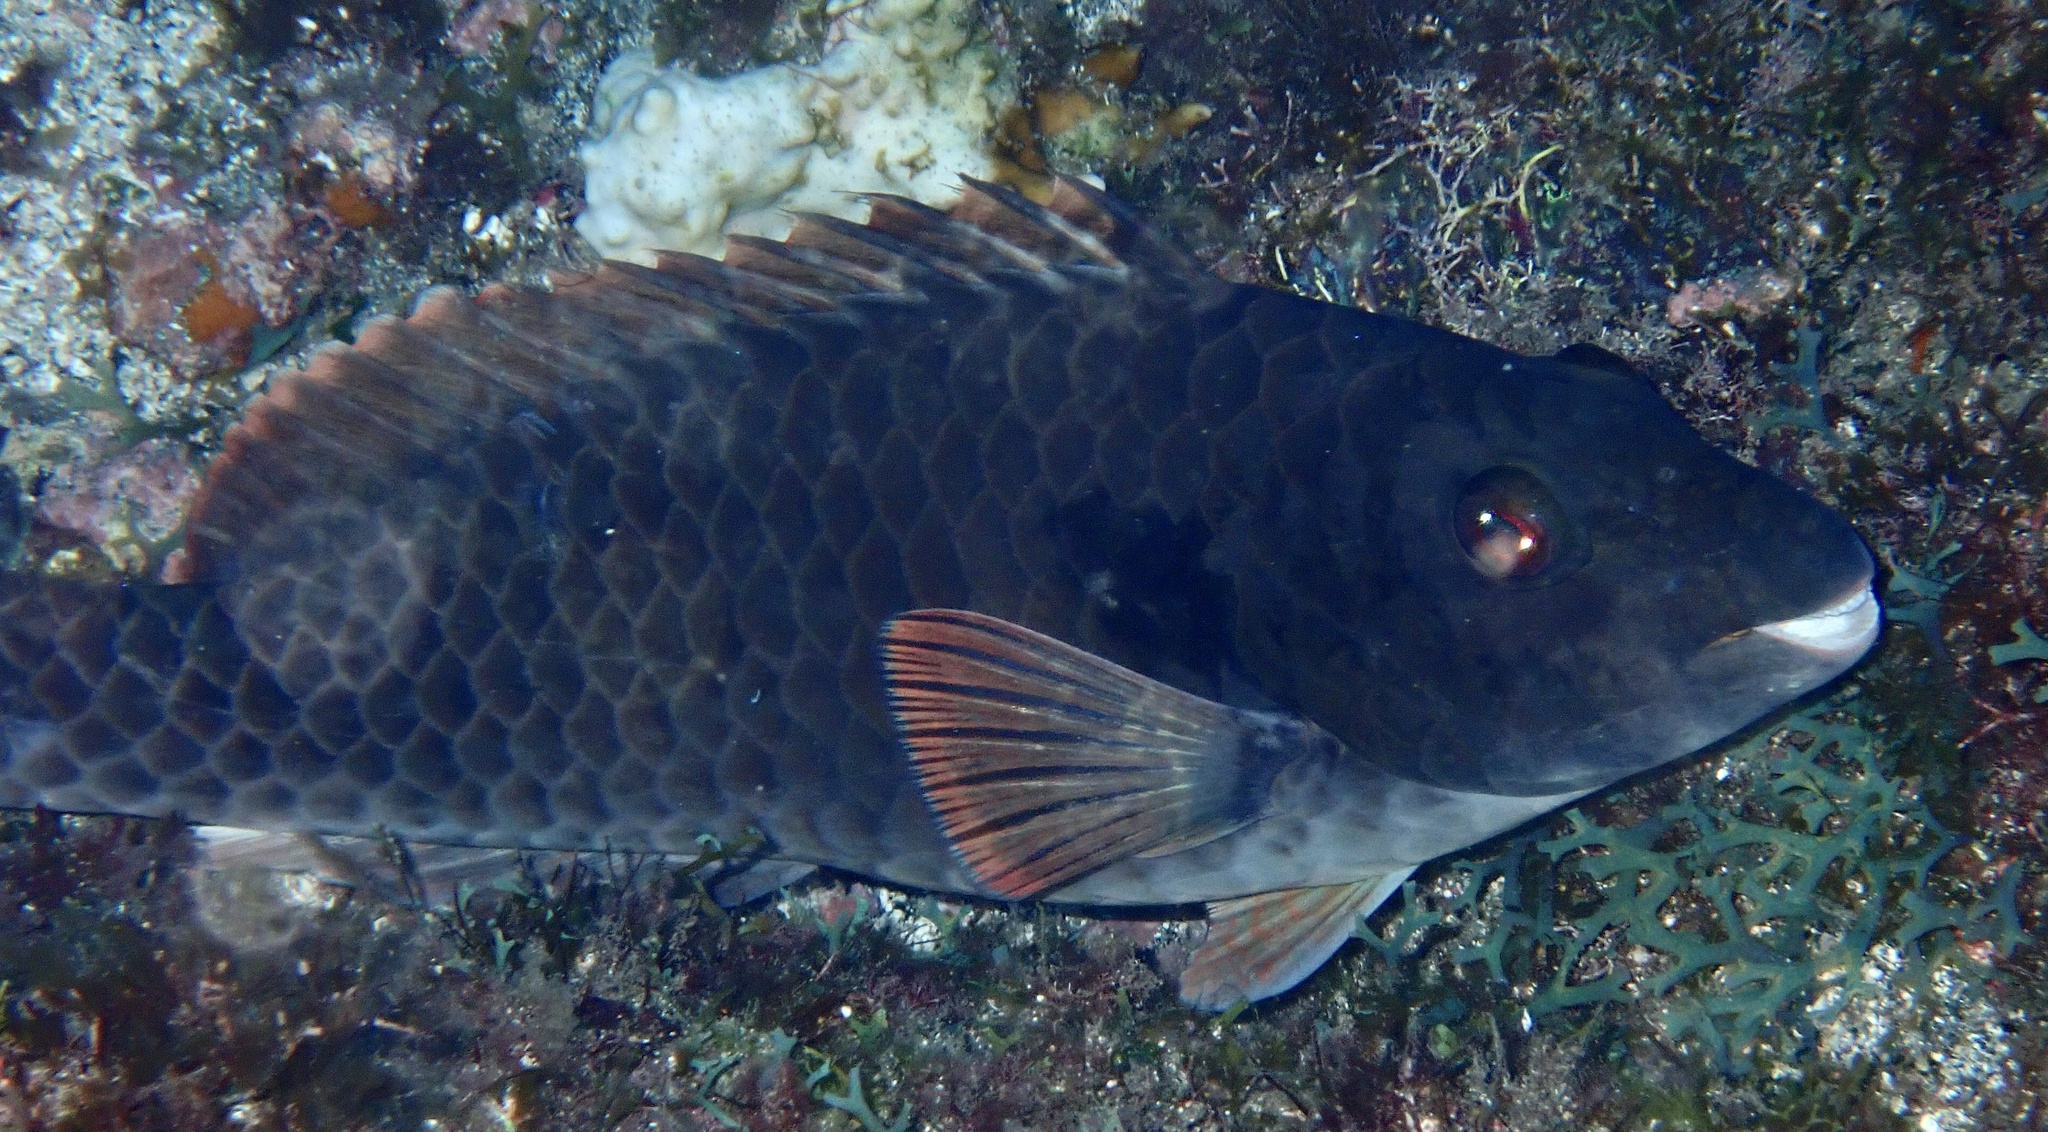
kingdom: Animalia
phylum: Chordata
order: Perciformes
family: Scaridae
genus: Sparisoma
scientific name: Sparisoma cretense
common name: Parrotfish
